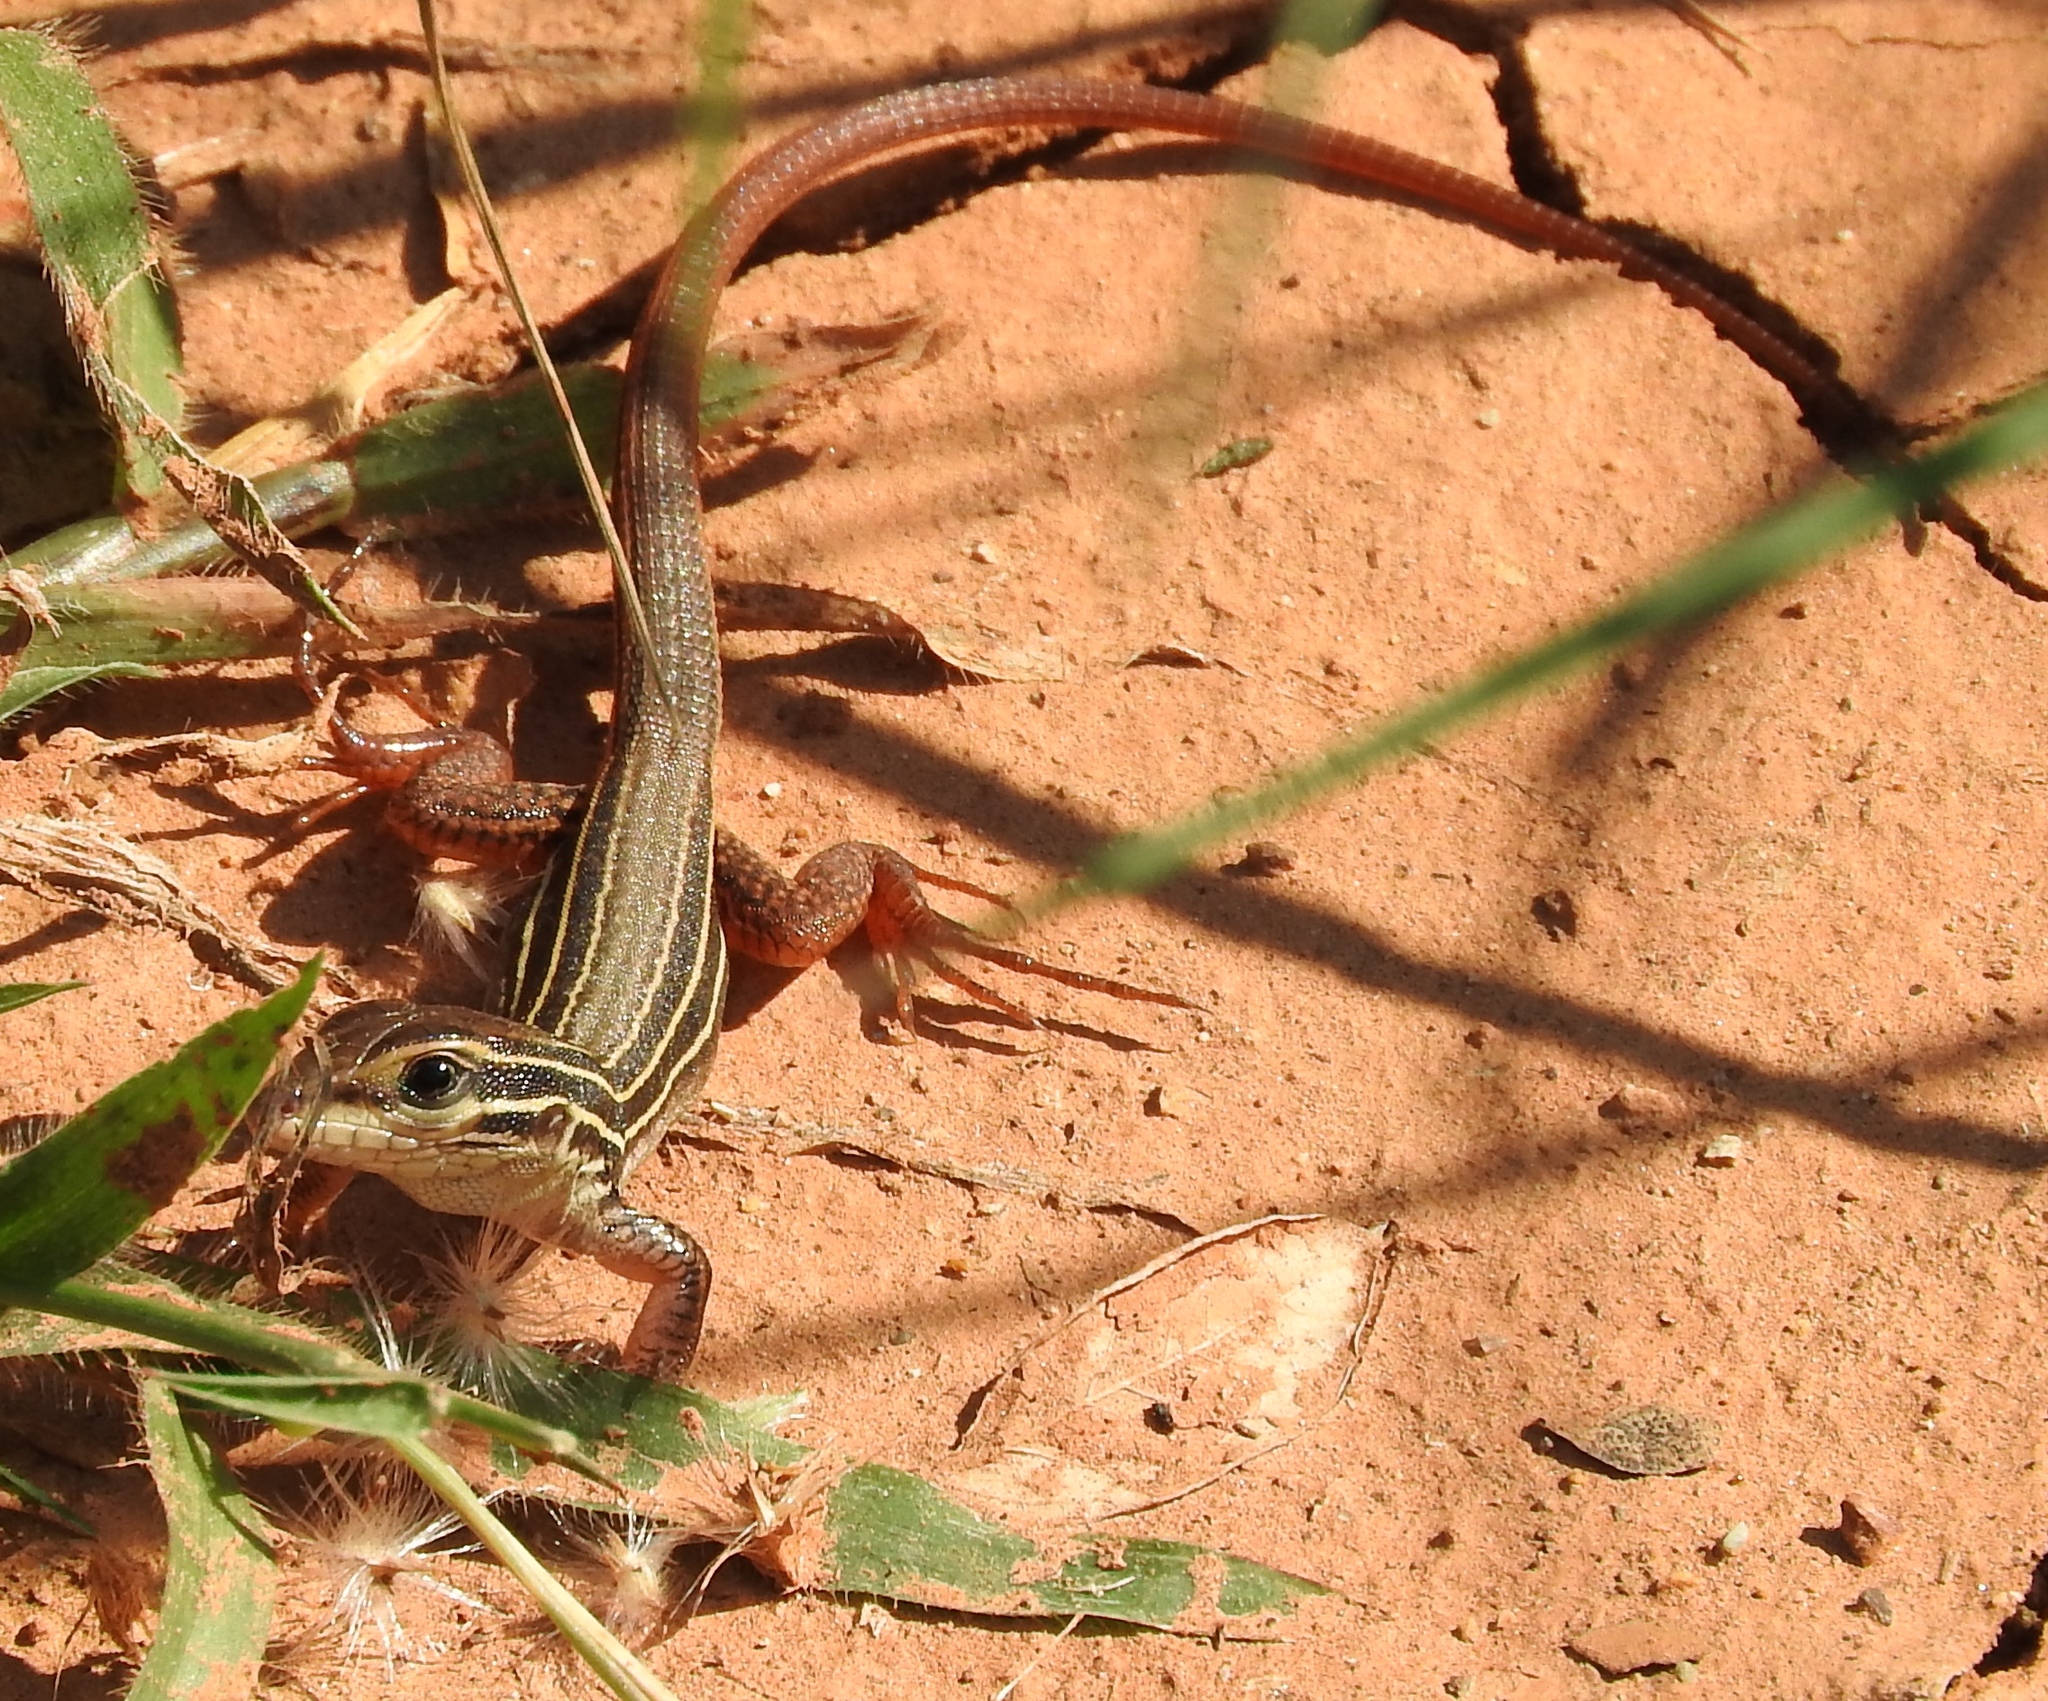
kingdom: Animalia
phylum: Chordata
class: Squamata
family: Teiidae
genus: Aspidoscelis
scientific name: Aspidoscelis costatus
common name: Western mexico whiptail
